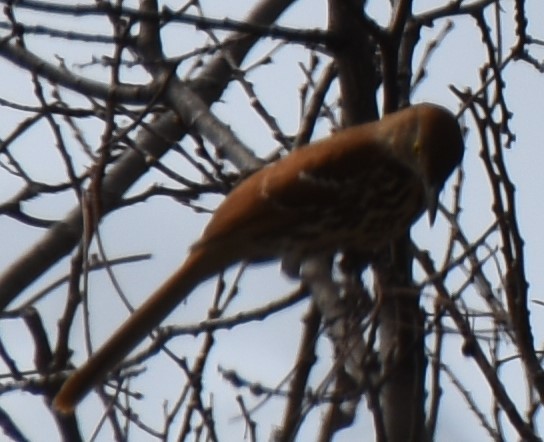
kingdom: Animalia
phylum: Chordata
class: Aves
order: Passeriformes
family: Mimidae
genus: Toxostoma
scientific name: Toxostoma rufum
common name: Brown thrasher
